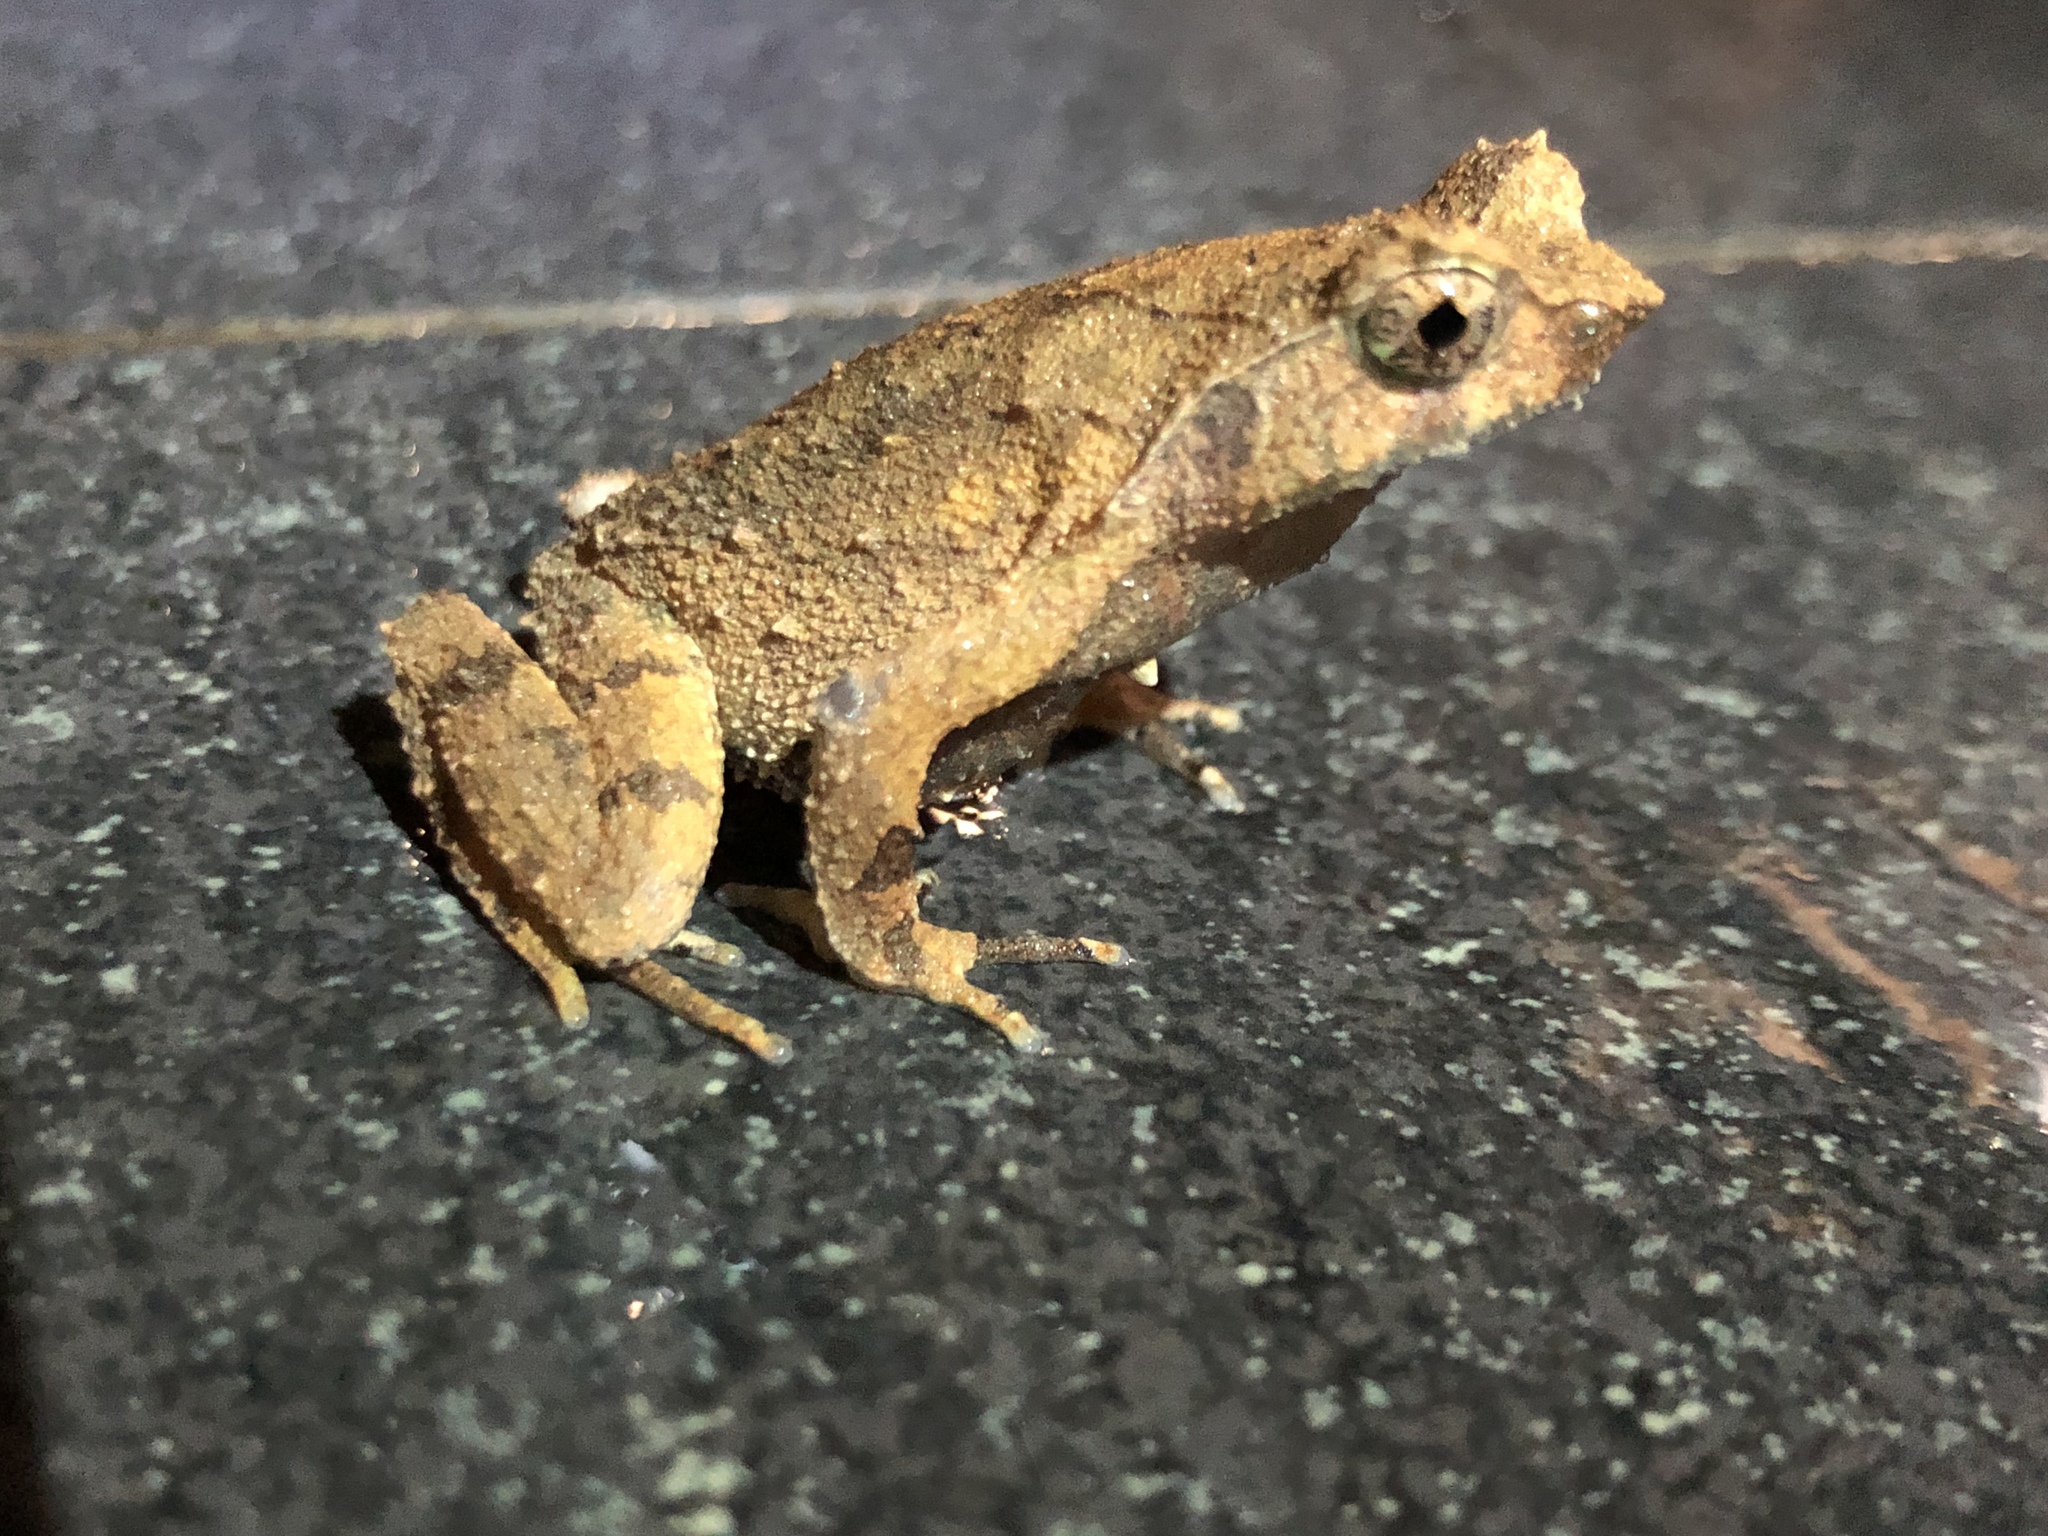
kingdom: Animalia
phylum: Chordata
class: Amphibia
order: Anura
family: Megophryidae
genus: Megophrys
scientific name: Megophrys brachykolos
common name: Short-legged horned toad
